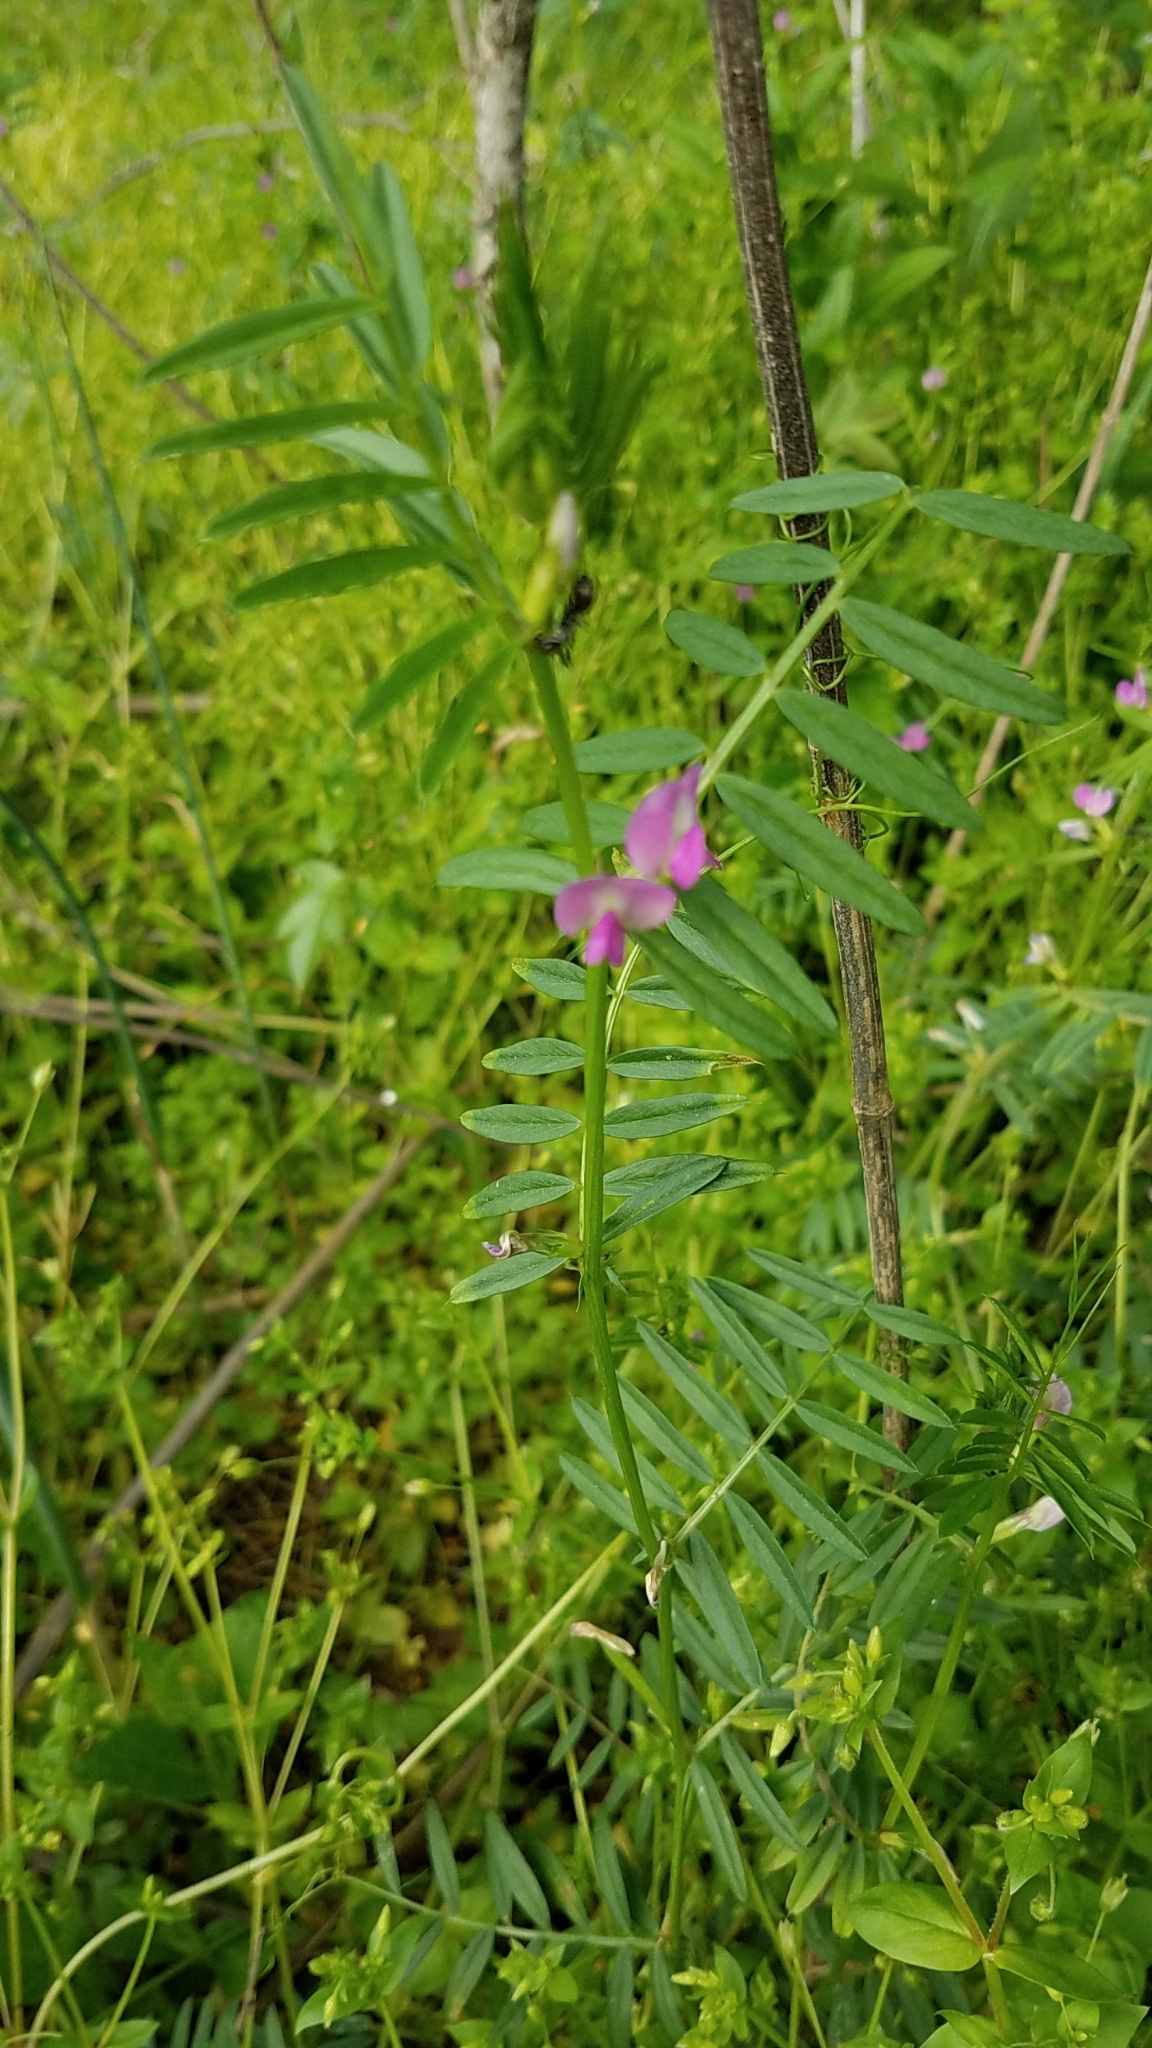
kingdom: Plantae
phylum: Tracheophyta
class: Magnoliopsida
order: Fabales
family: Fabaceae
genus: Vicia
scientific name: Vicia sativa
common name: Garden vetch
